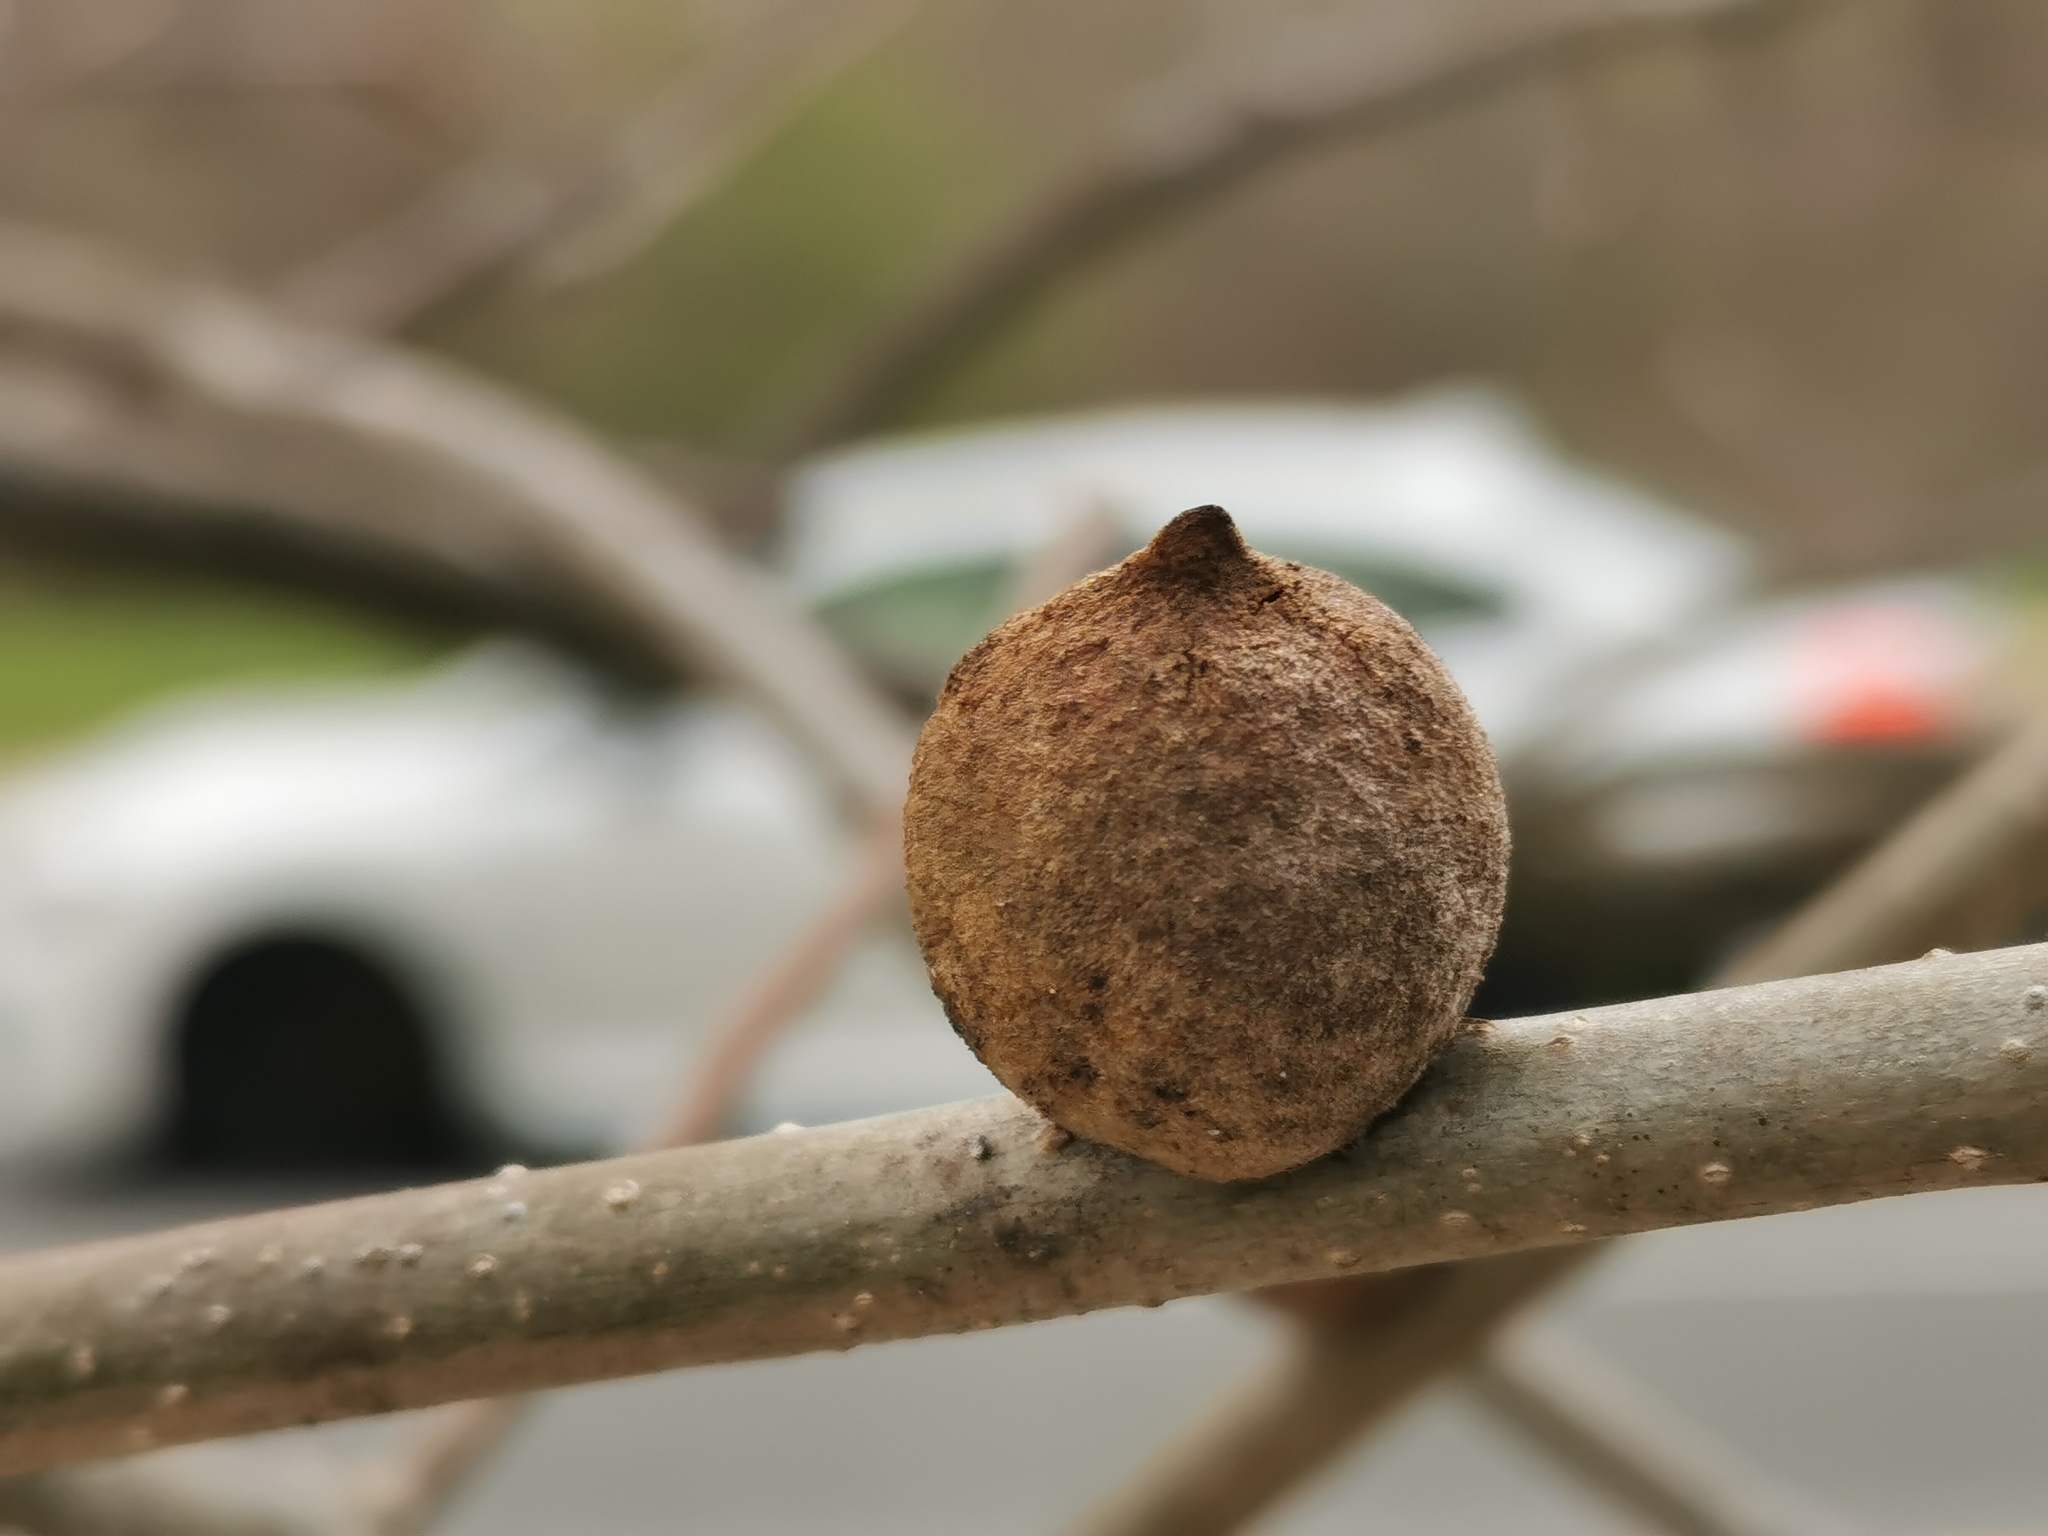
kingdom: Animalia
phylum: Arthropoda
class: Insecta
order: Hymenoptera
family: Cynipidae
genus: Disholcaspis
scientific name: Disholcaspis
